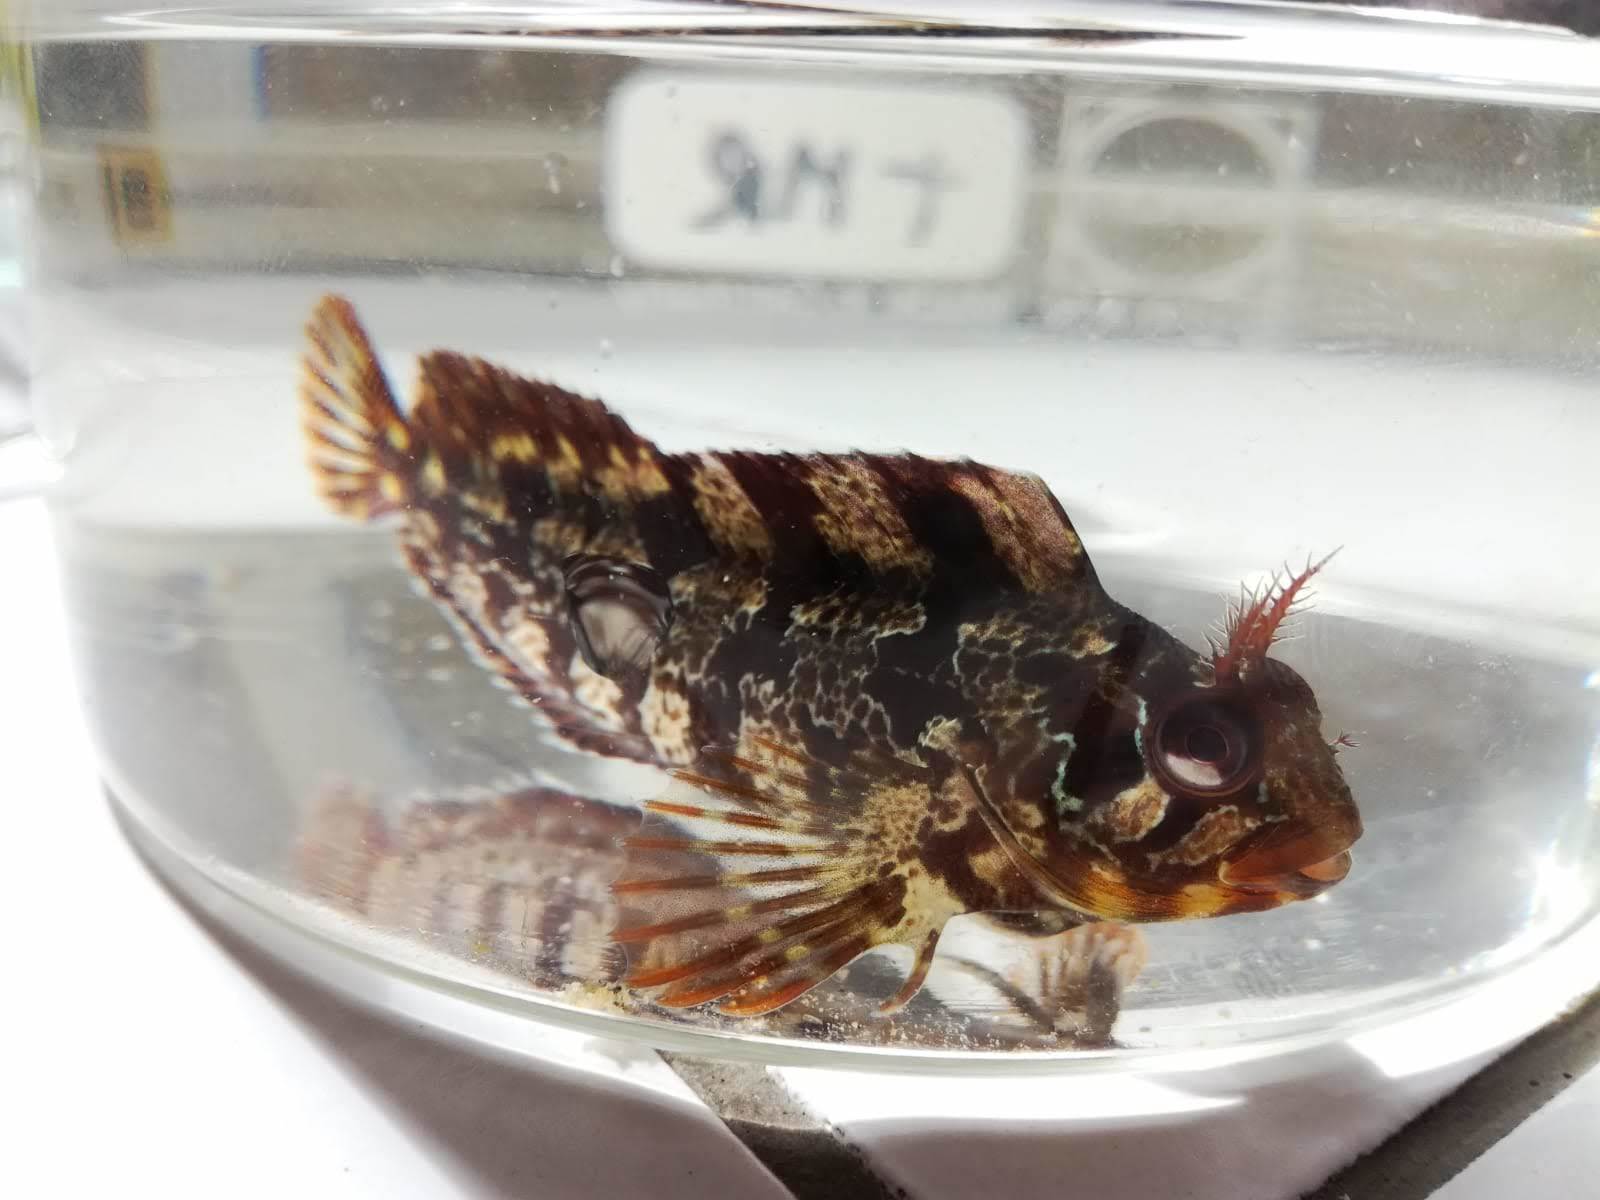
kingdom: Animalia
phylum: Chordata
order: Perciformes
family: Blenniidae
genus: Parablennius
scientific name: Parablennius gattorugine
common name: Tompot blenny
